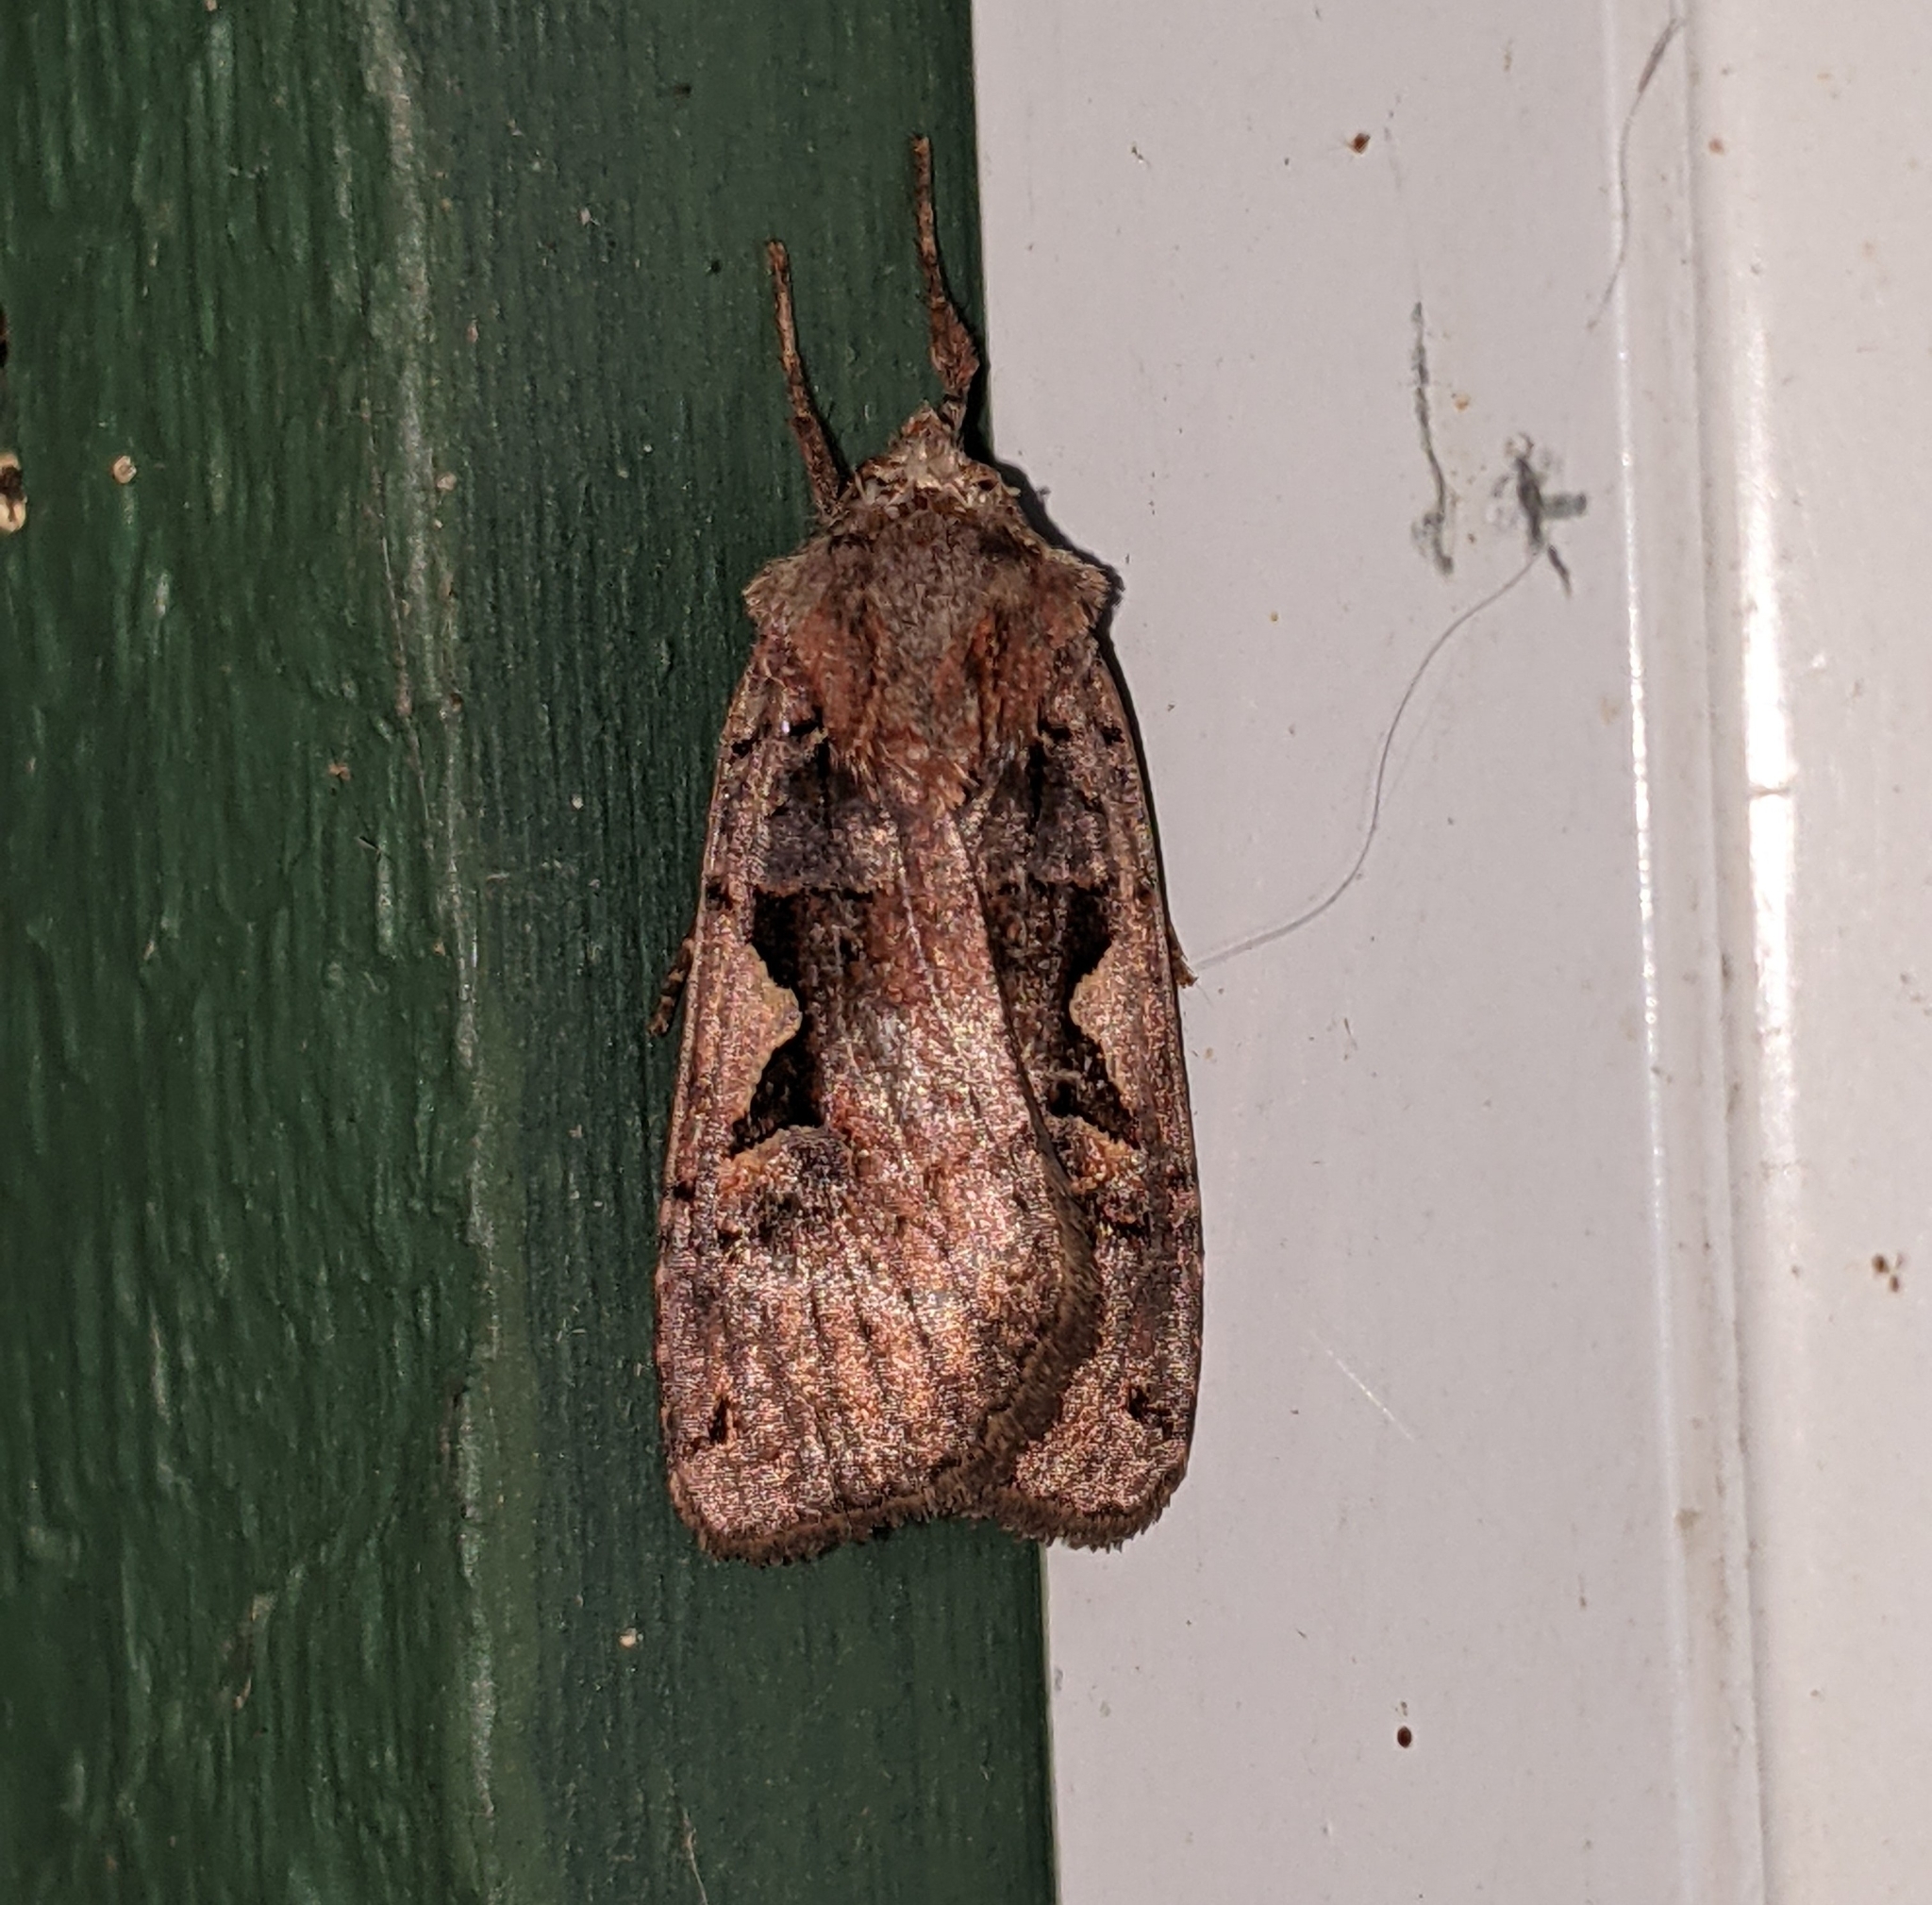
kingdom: Animalia
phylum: Arthropoda
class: Insecta
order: Lepidoptera
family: Noctuidae
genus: Xestia
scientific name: Xestia c-nigrum
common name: Setaceous hebrew character
